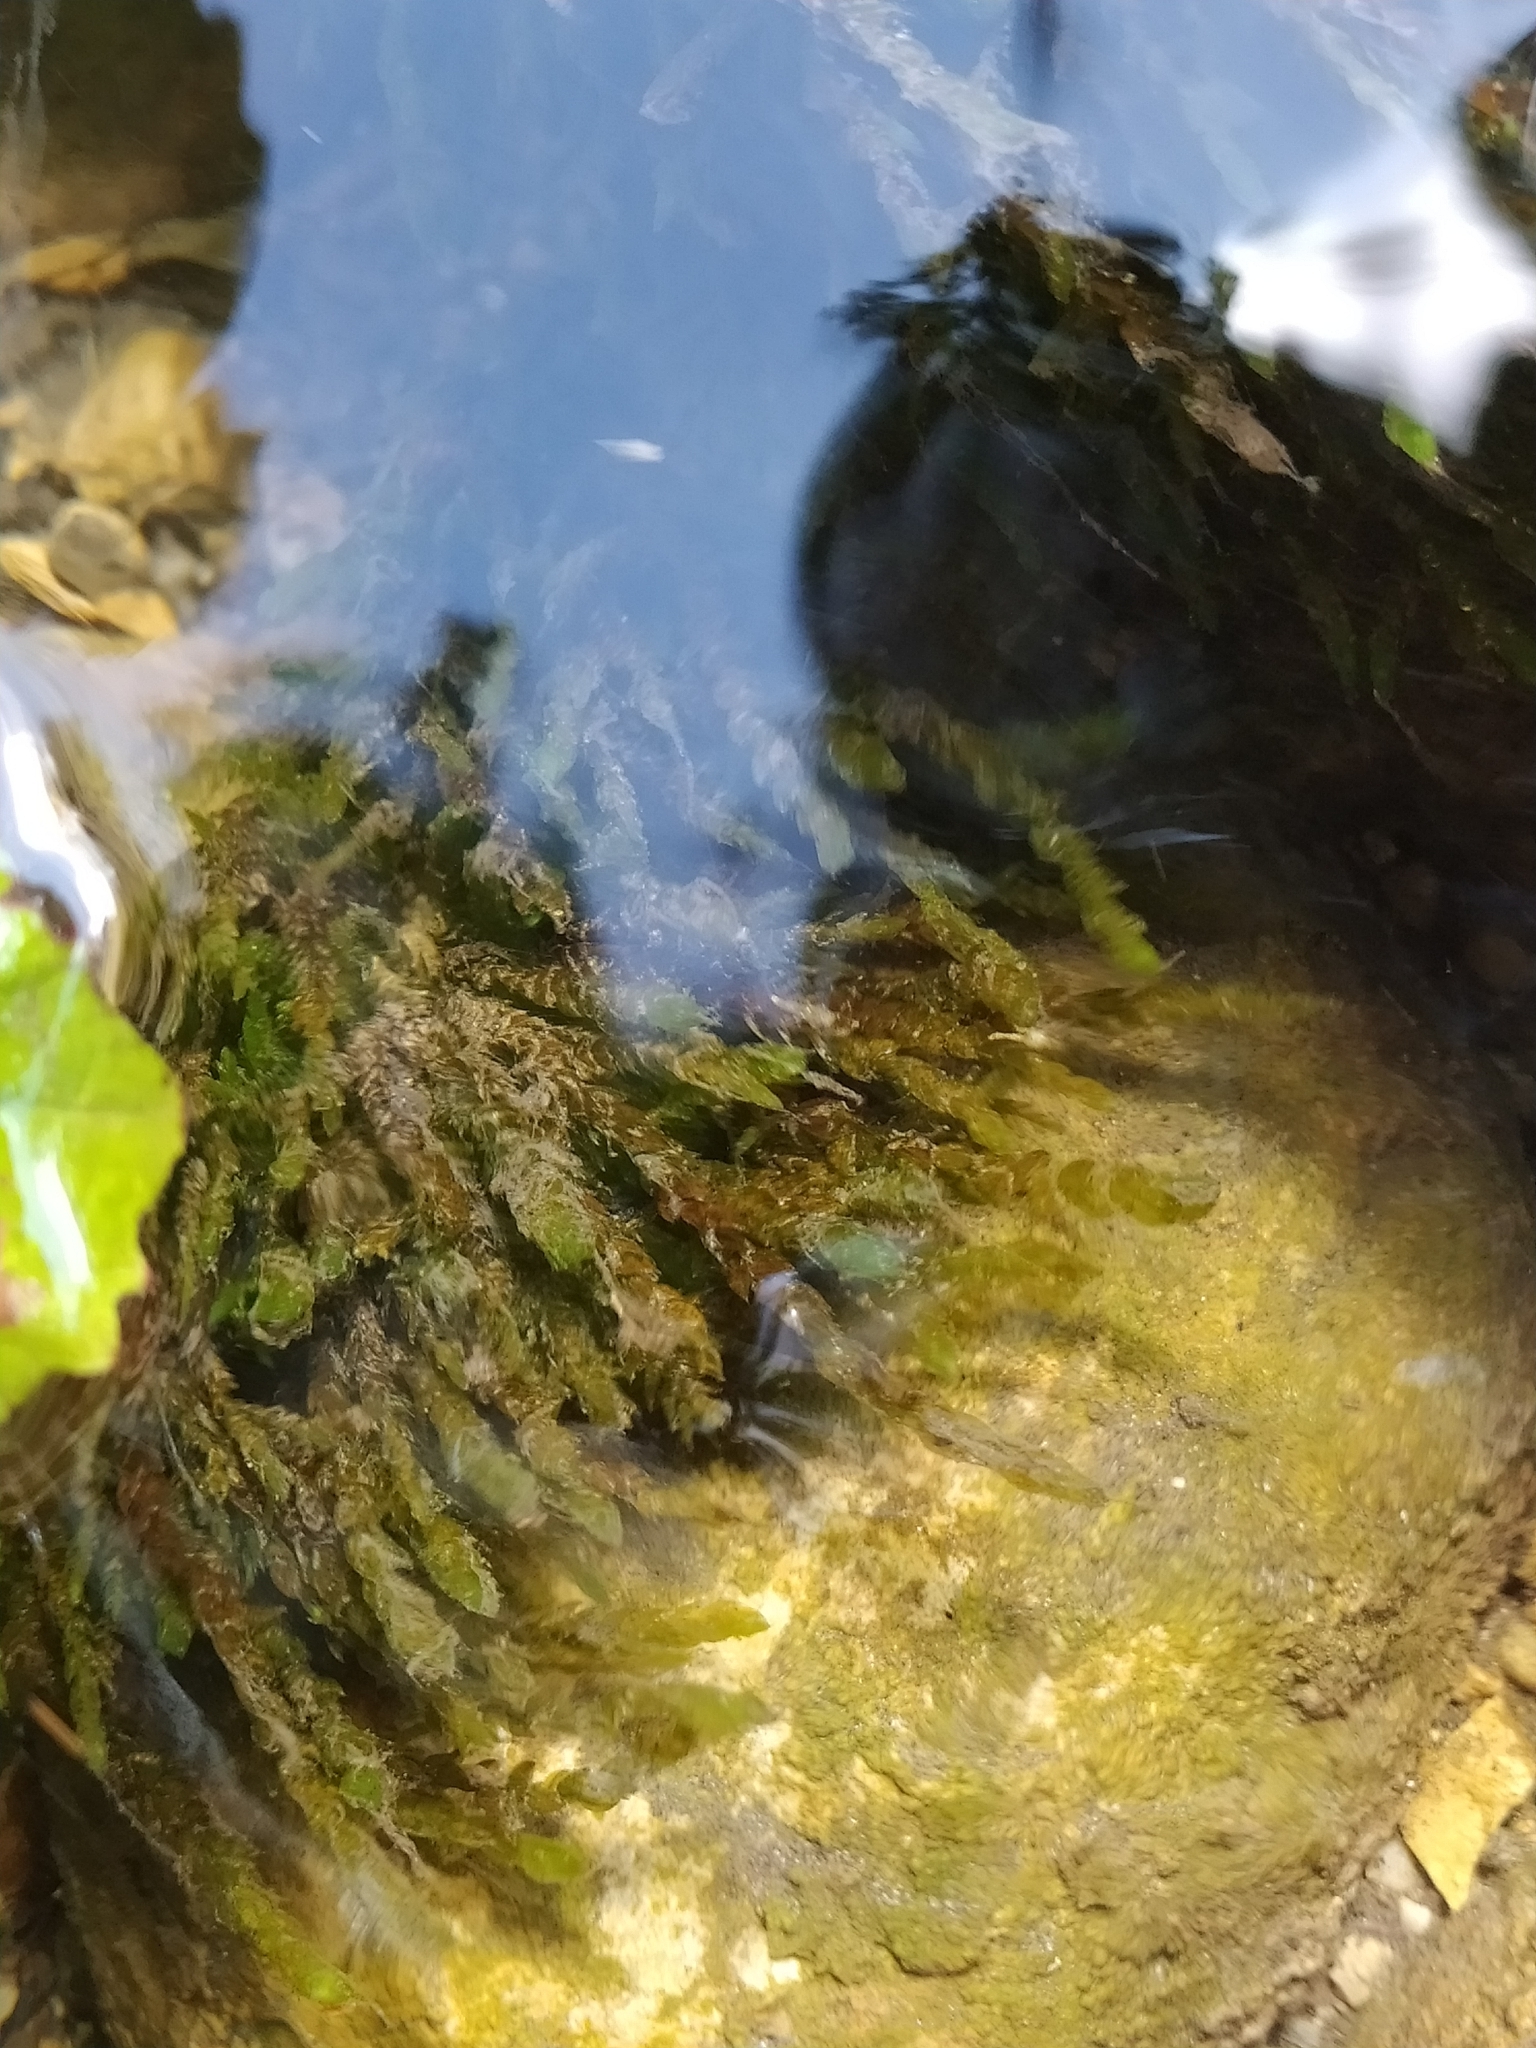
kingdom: Plantae
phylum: Bryophyta
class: Bryopsida
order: Hypnales
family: Fontinalaceae
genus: Fontinalis
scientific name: Fontinalis antipyretica
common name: Greater water-moss
